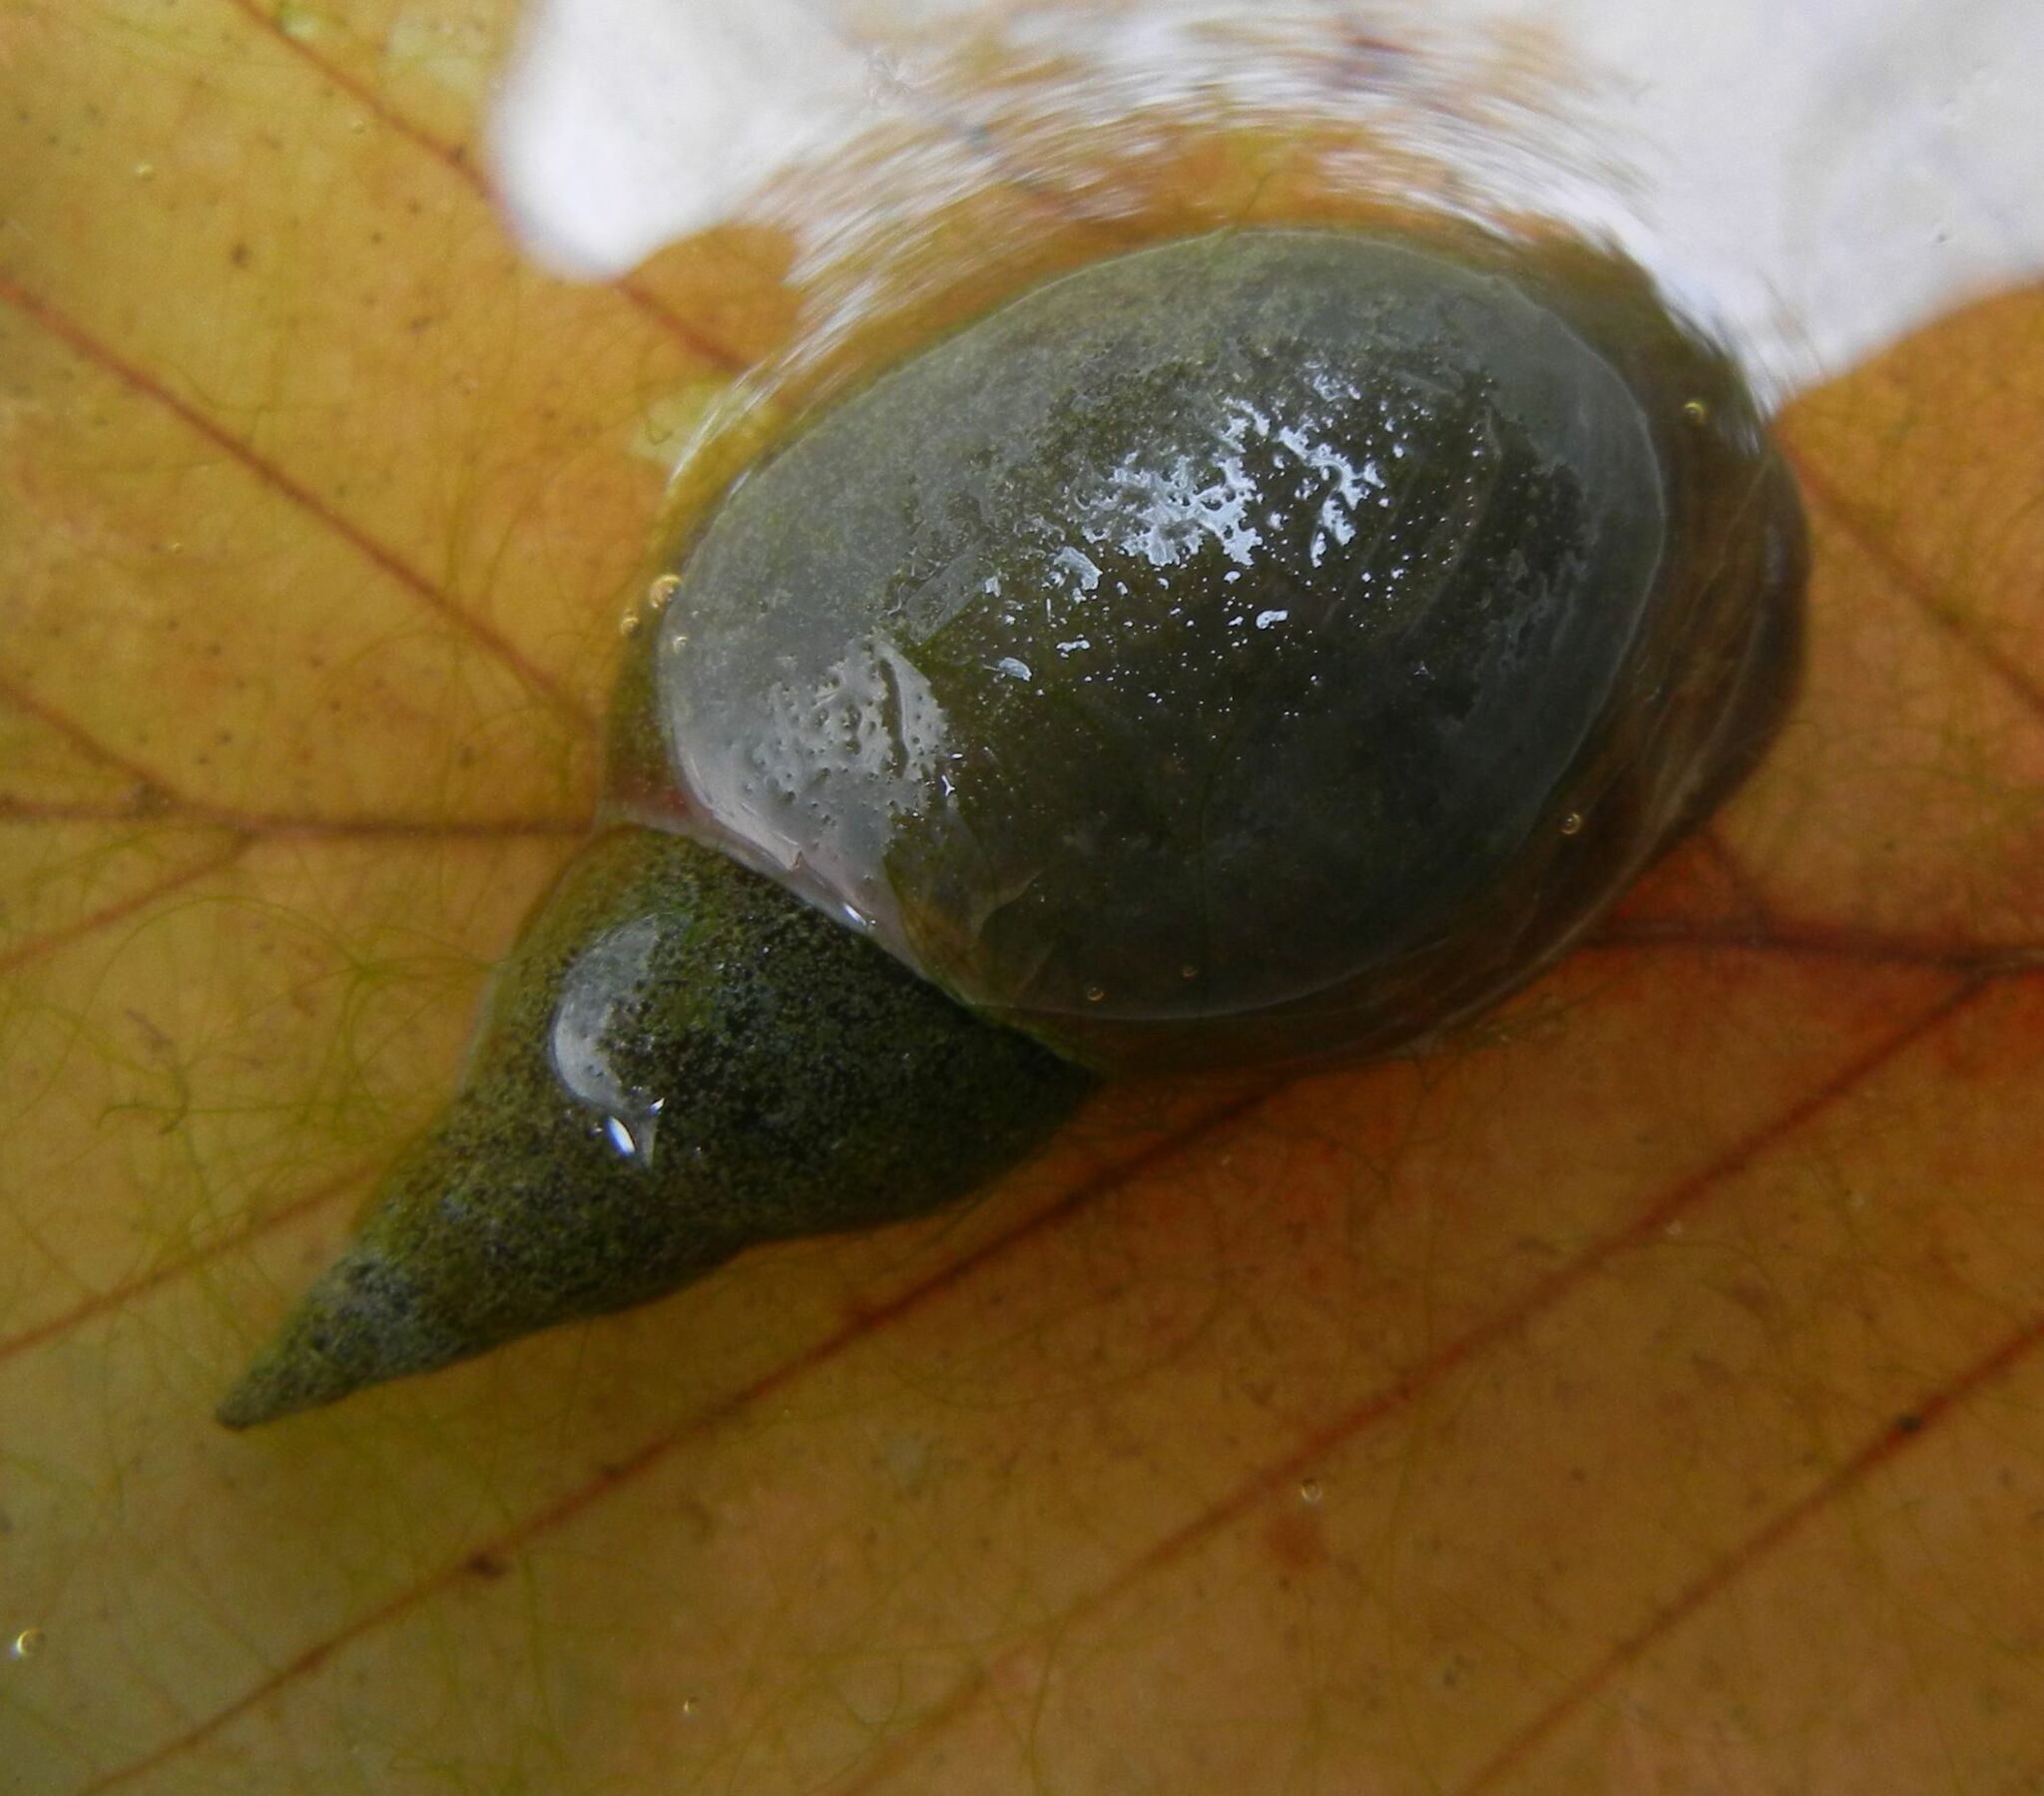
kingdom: Animalia
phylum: Mollusca
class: Gastropoda
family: Lymnaeidae
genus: Lymnaea
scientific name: Lymnaea stagnalis
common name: Great pond snail
